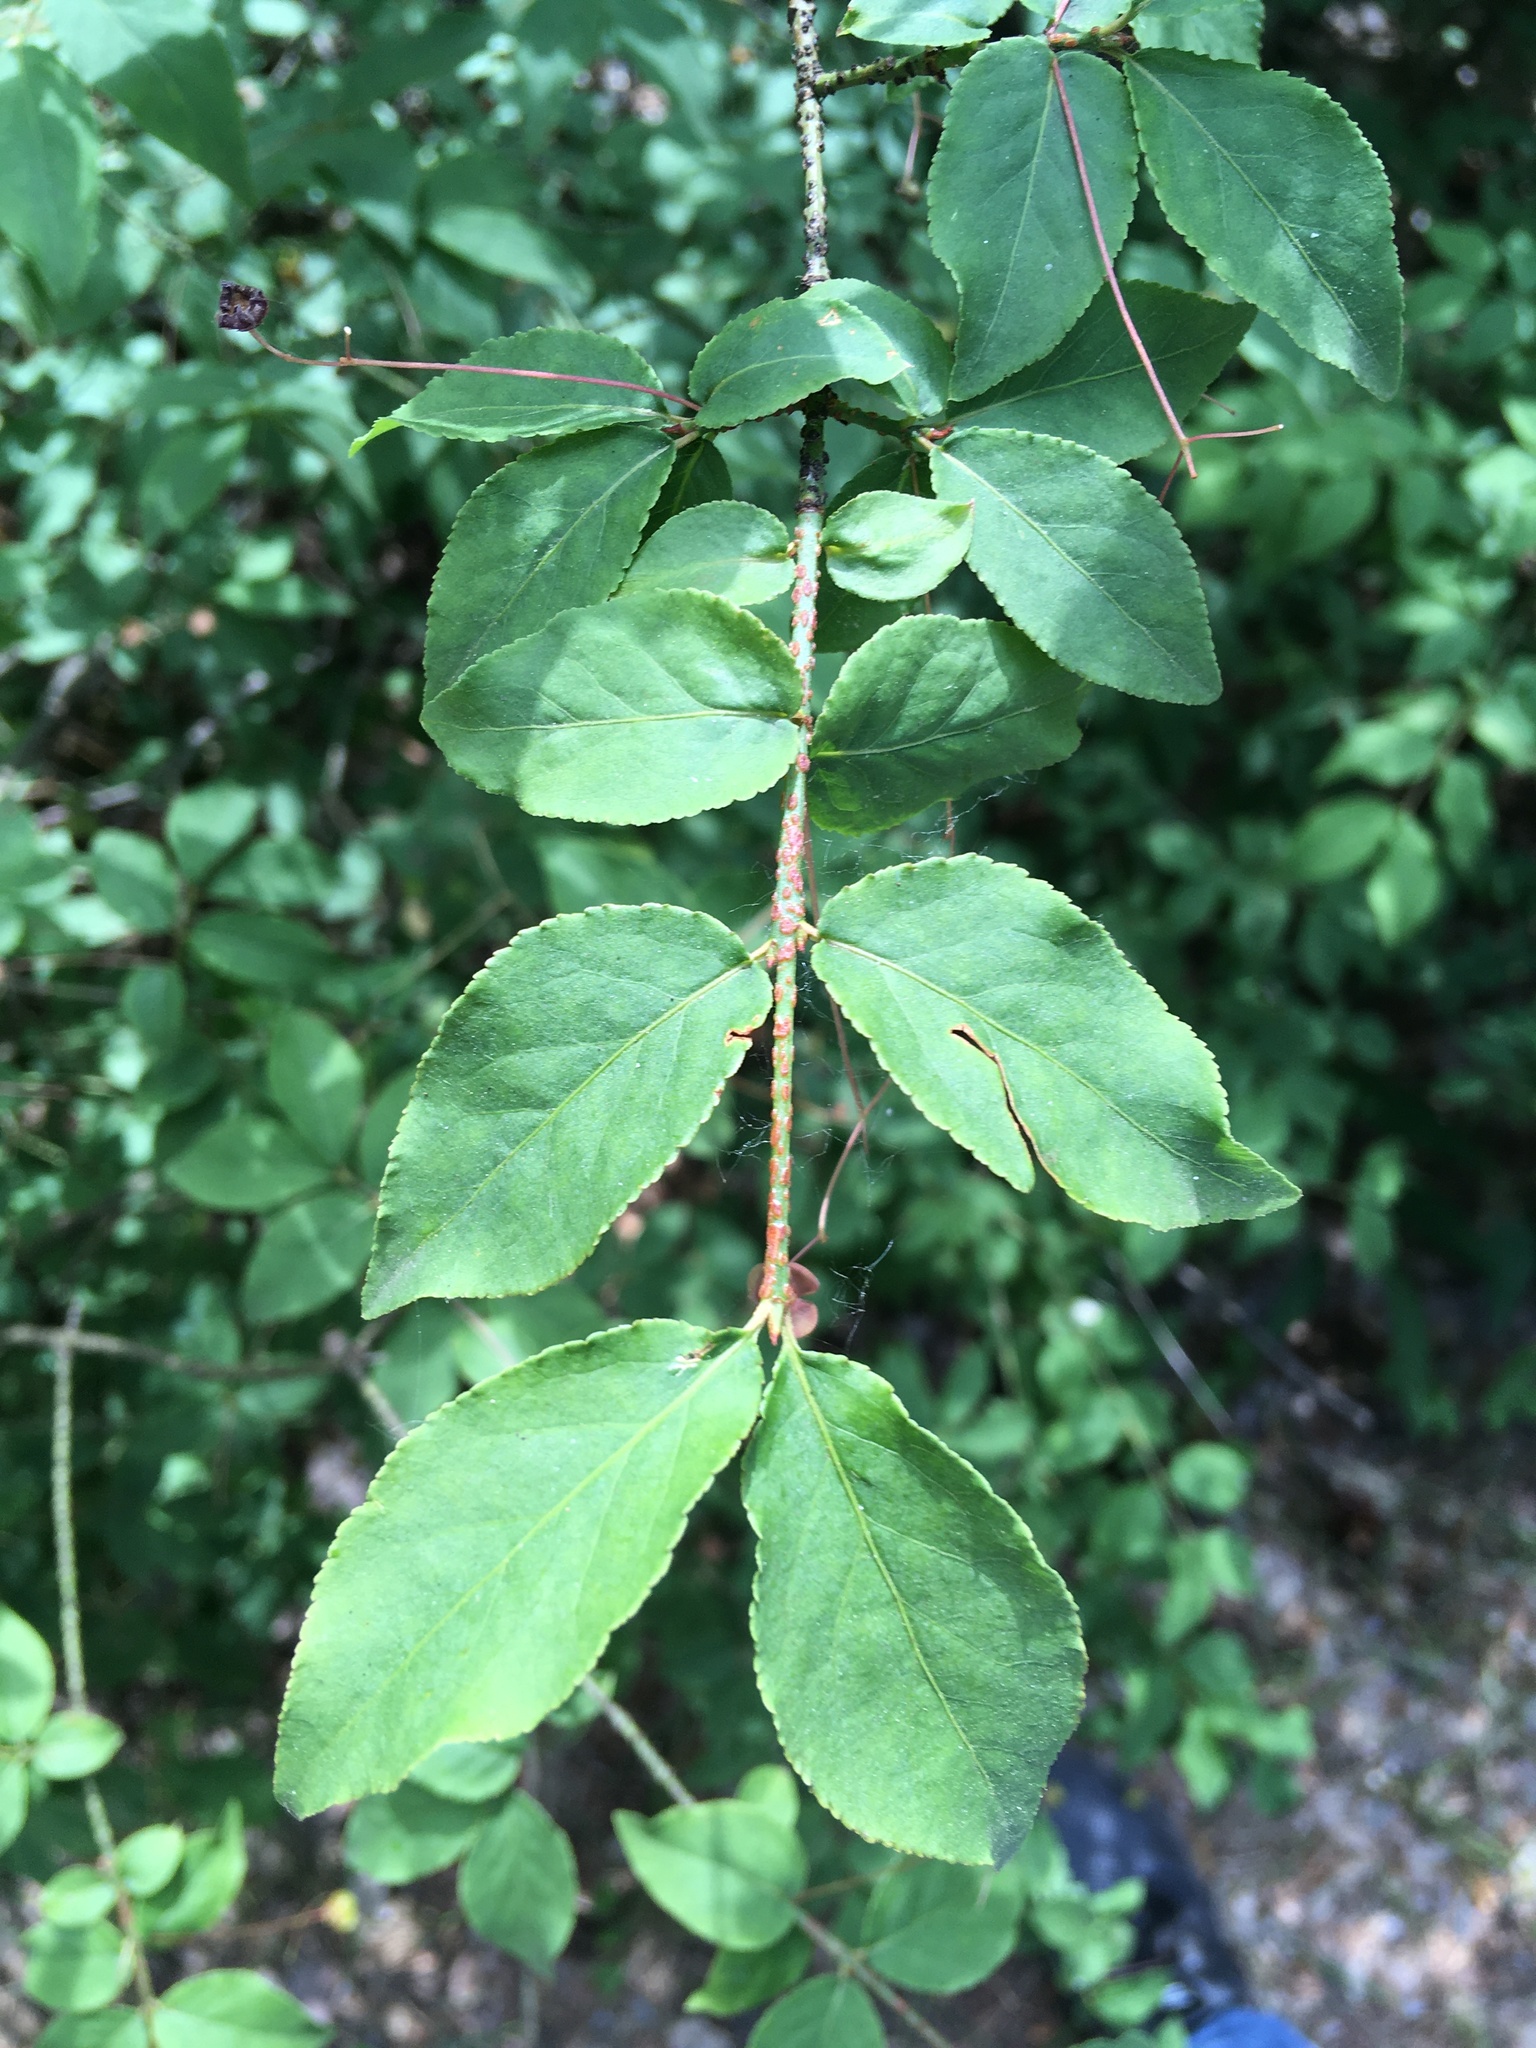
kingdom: Plantae
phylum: Tracheophyta
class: Magnoliopsida
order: Celastrales
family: Celastraceae
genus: Euonymus
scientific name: Euonymus verrucosus
